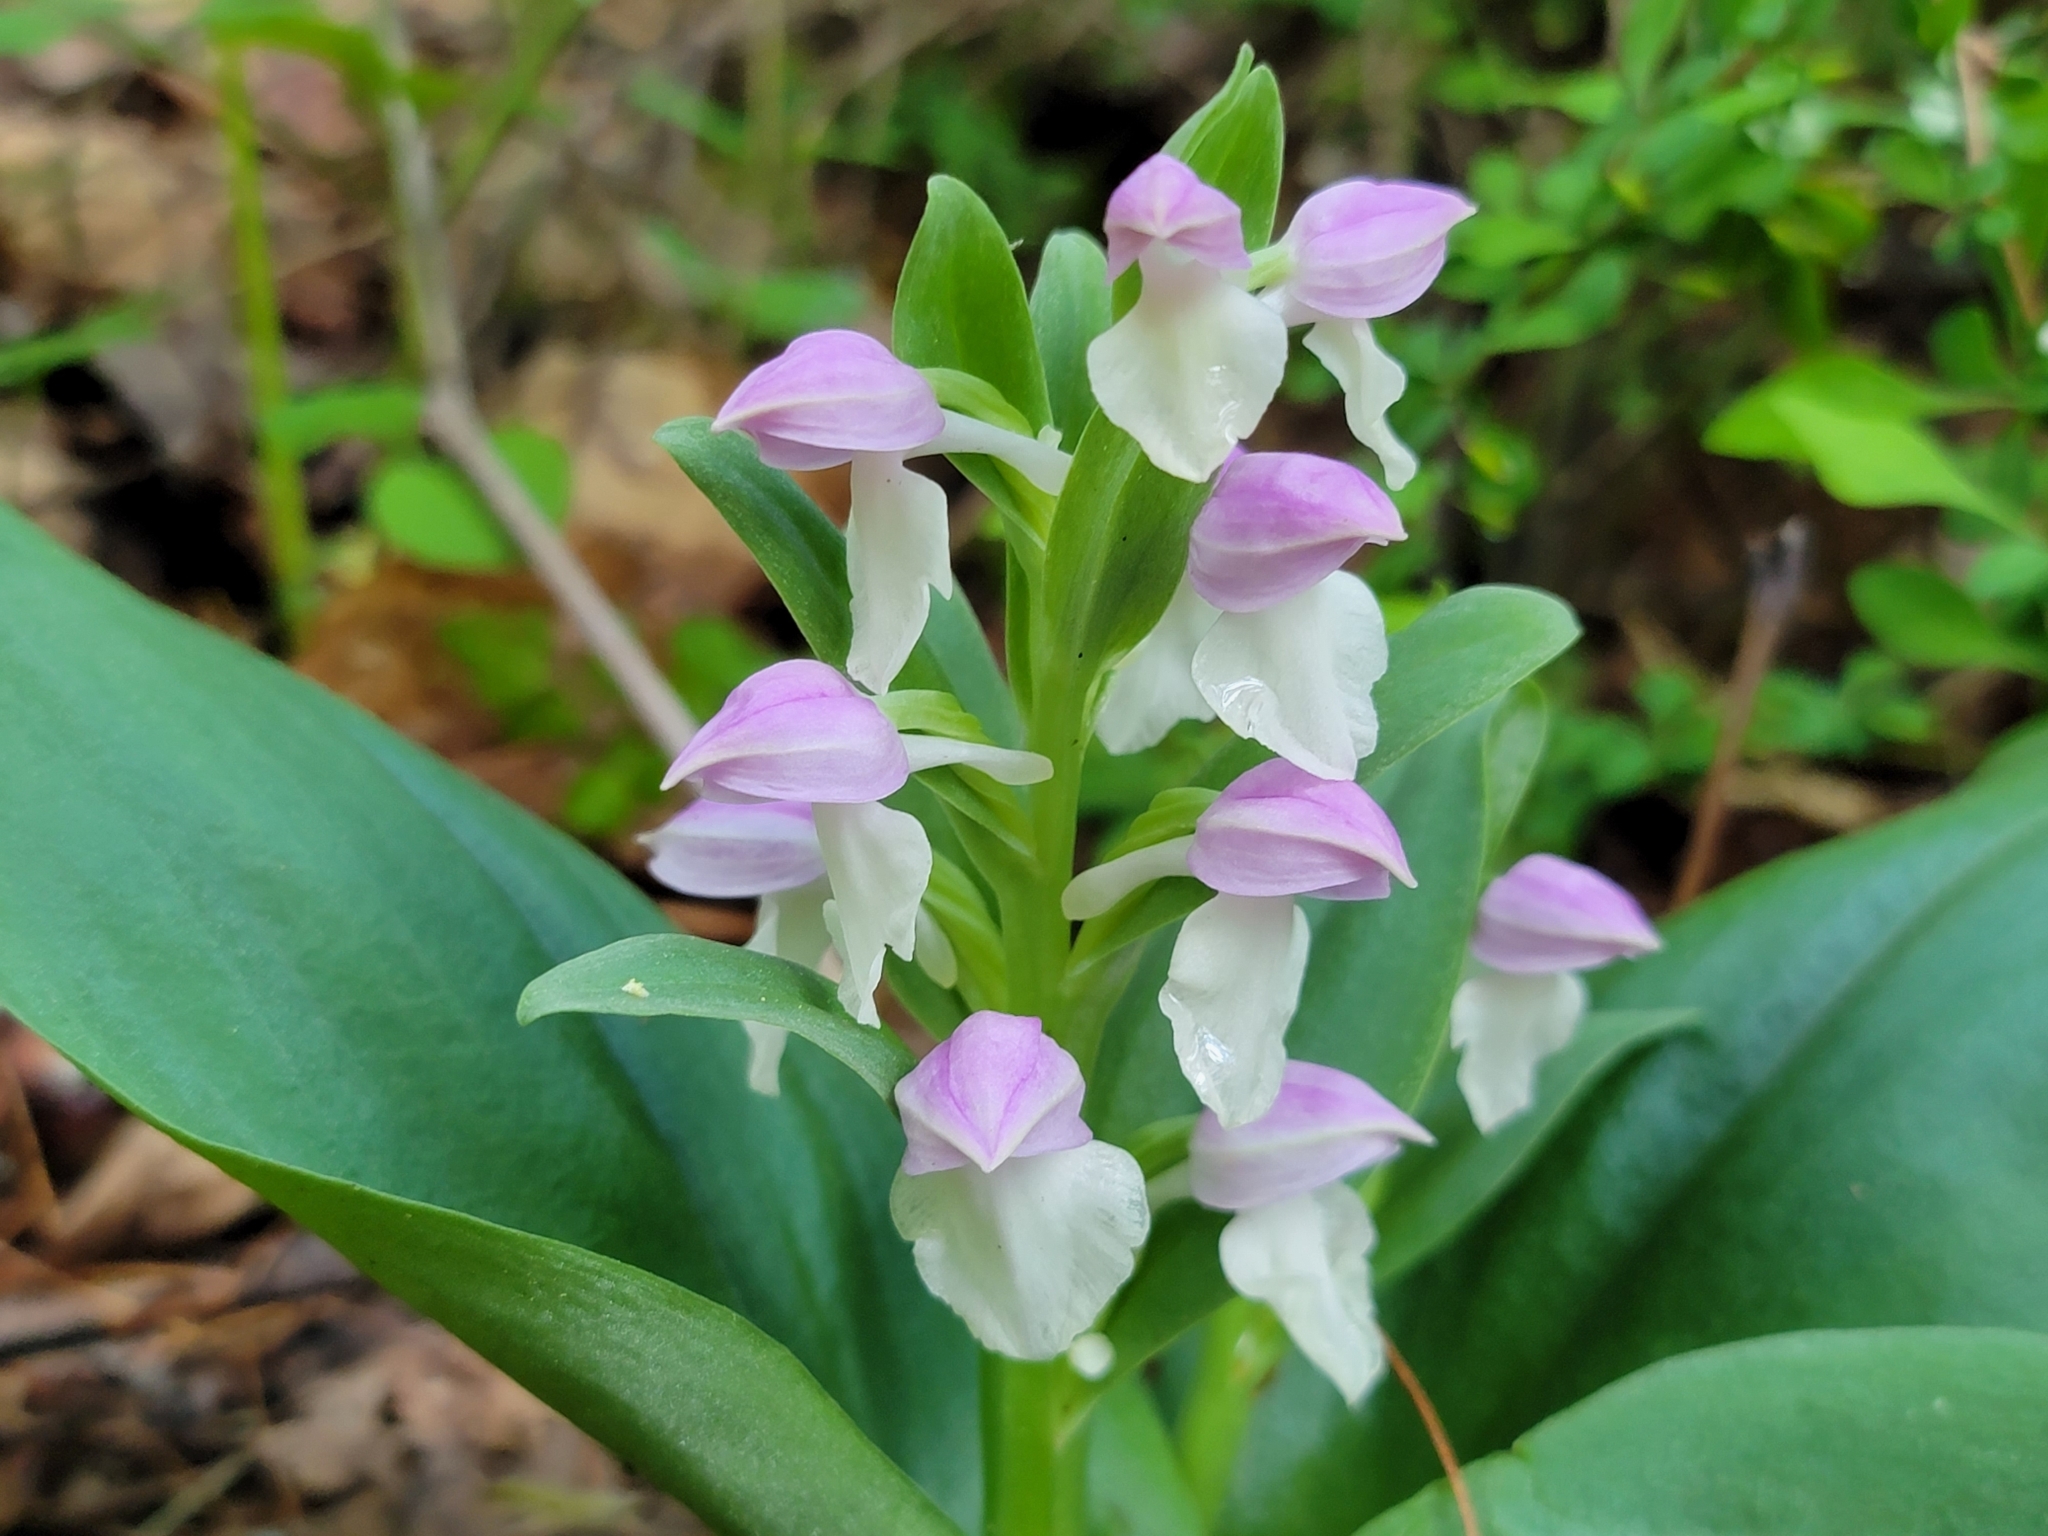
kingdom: Plantae
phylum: Tracheophyta
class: Liliopsida
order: Asparagales
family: Orchidaceae
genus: Galearis
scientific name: Galearis spectabilis
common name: Purple-hooded orchis
